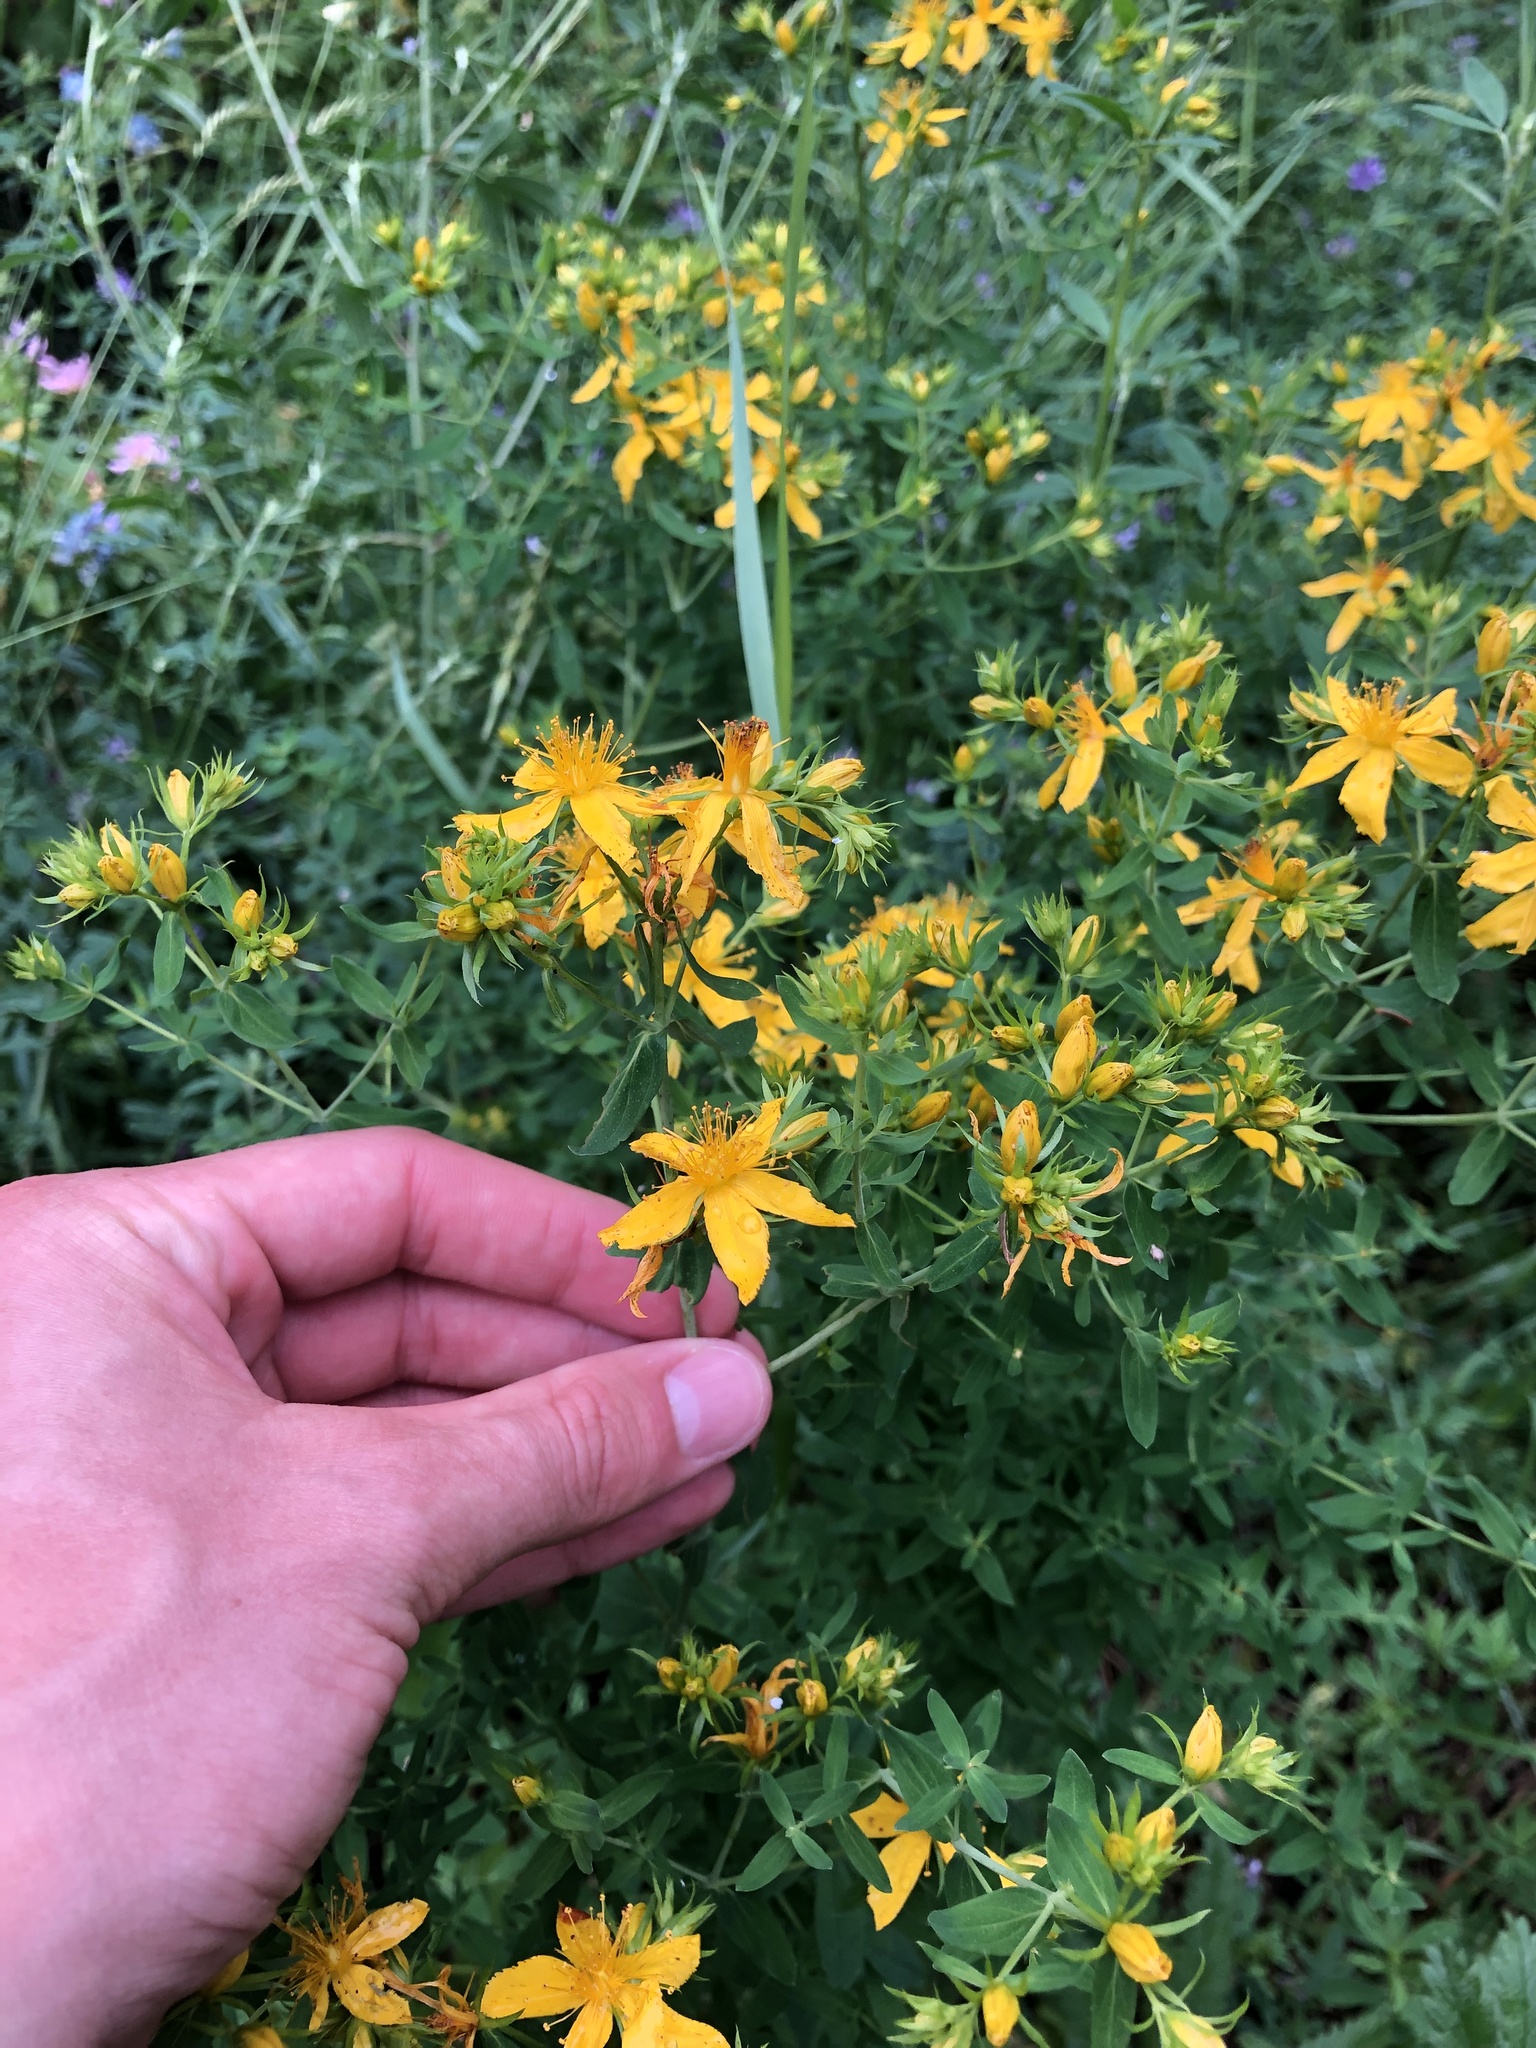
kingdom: Plantae
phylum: Tracheophyta
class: Magnoliopsida
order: Malpighiales
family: Hypericaceae
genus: Hypericum
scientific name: Hypericum perforatum
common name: Common st. johnswort
